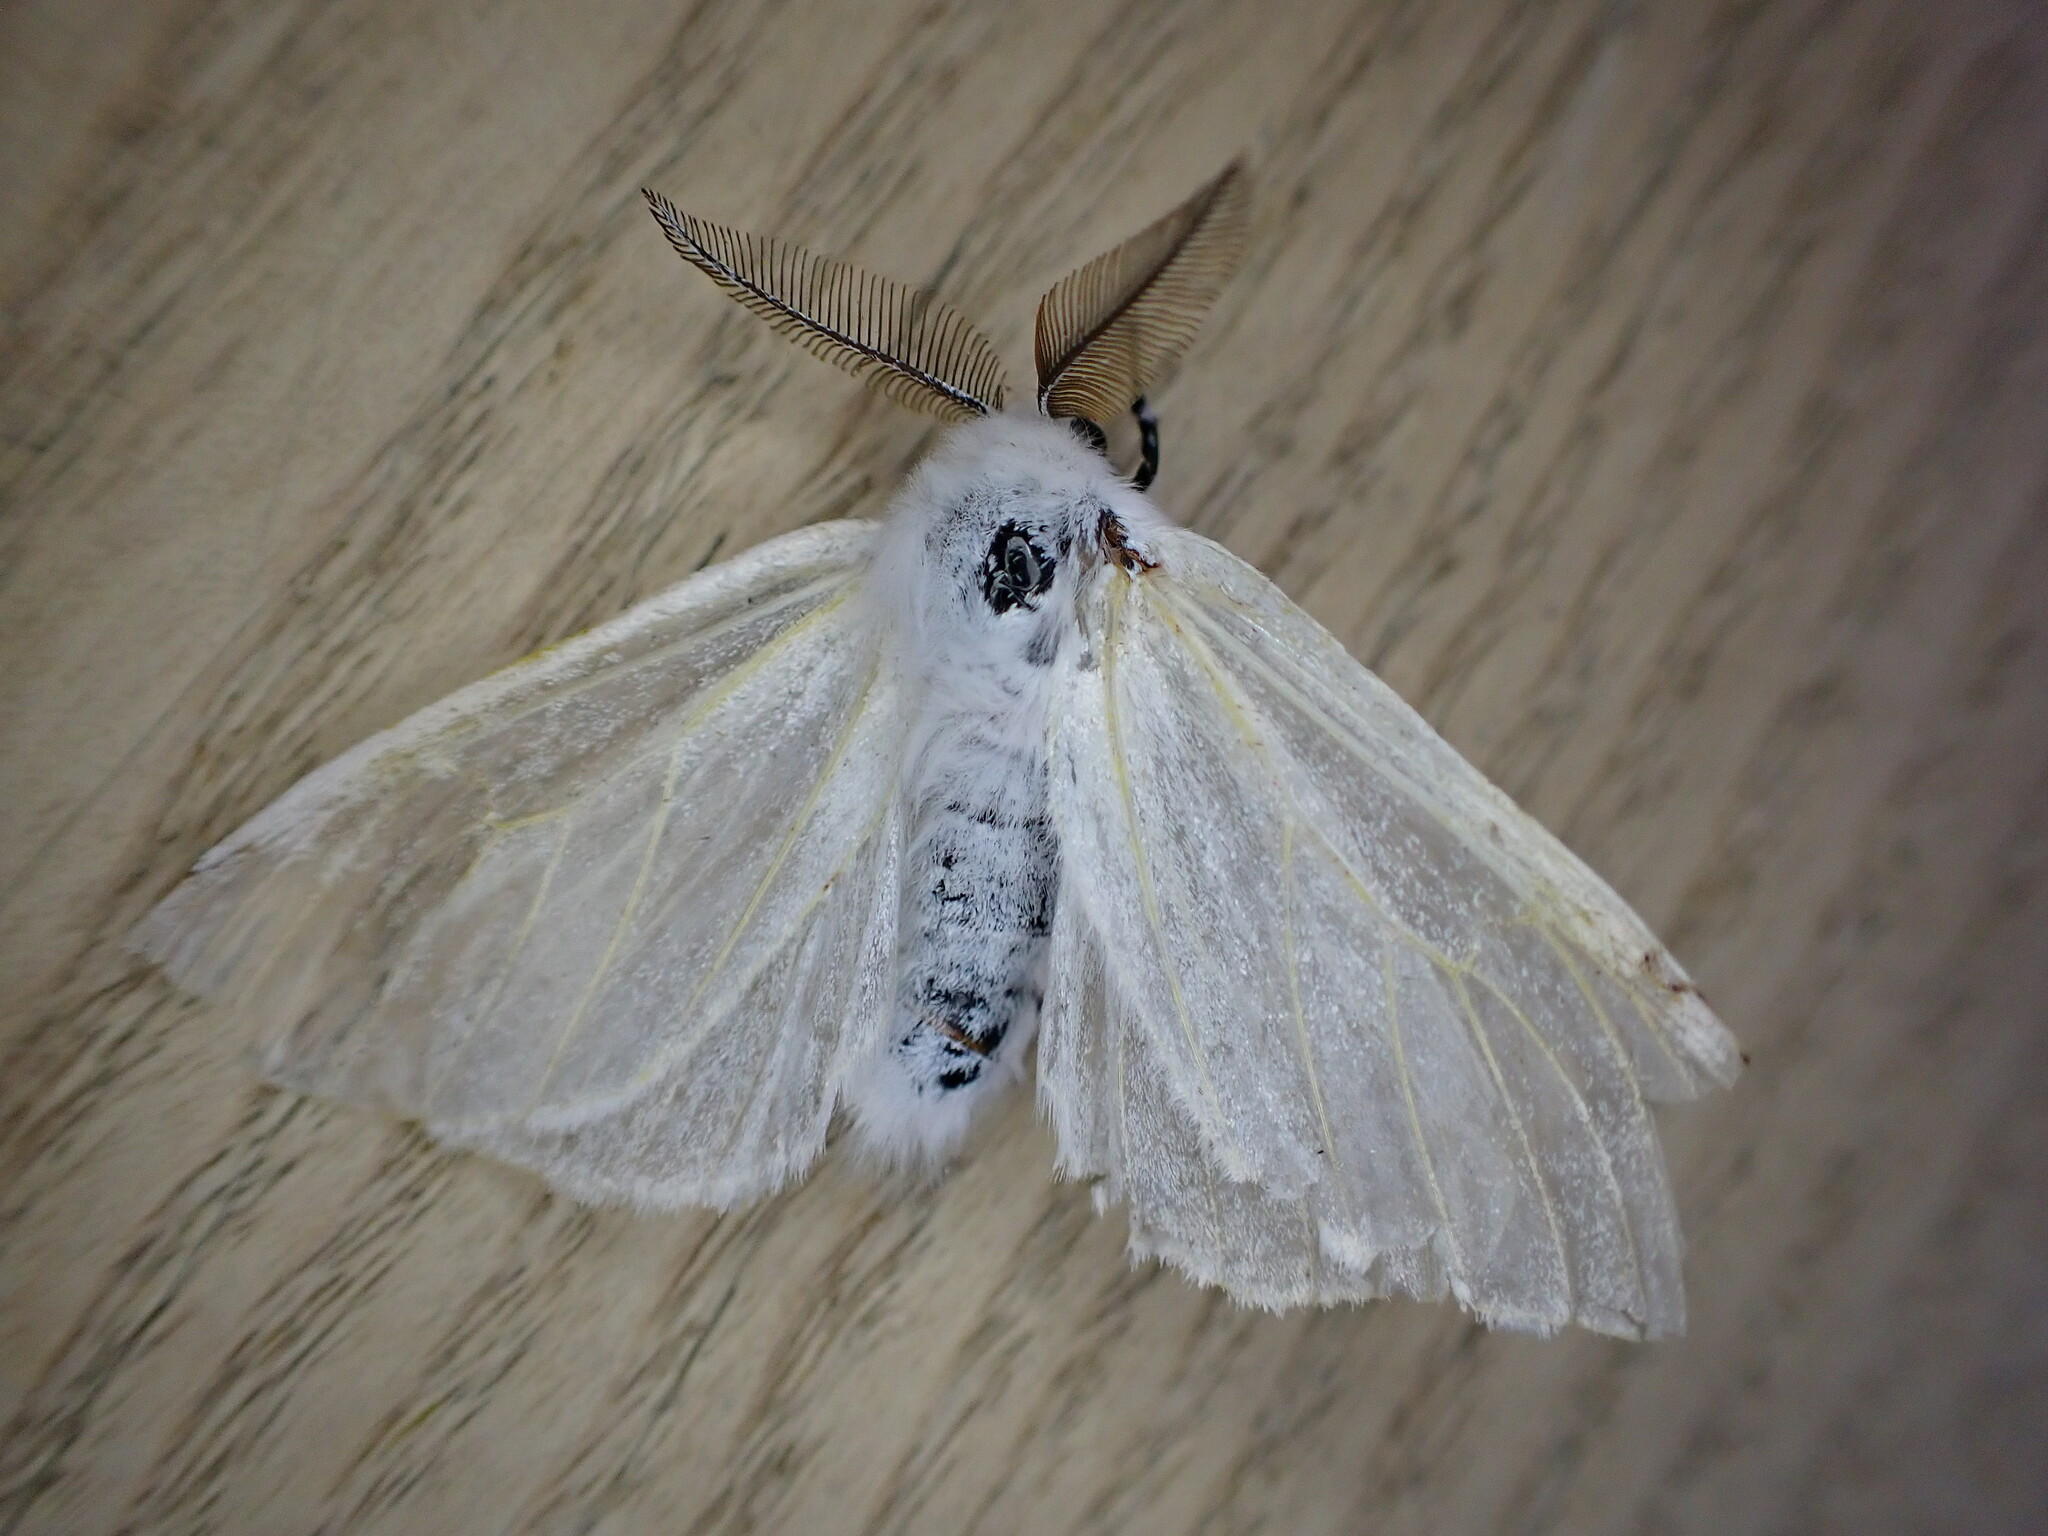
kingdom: Animalia
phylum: Arthropoda
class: Insecta
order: Lepidoptera
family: Erebidae
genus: Leucoma
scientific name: Leucoma salicis
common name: White satin moth
